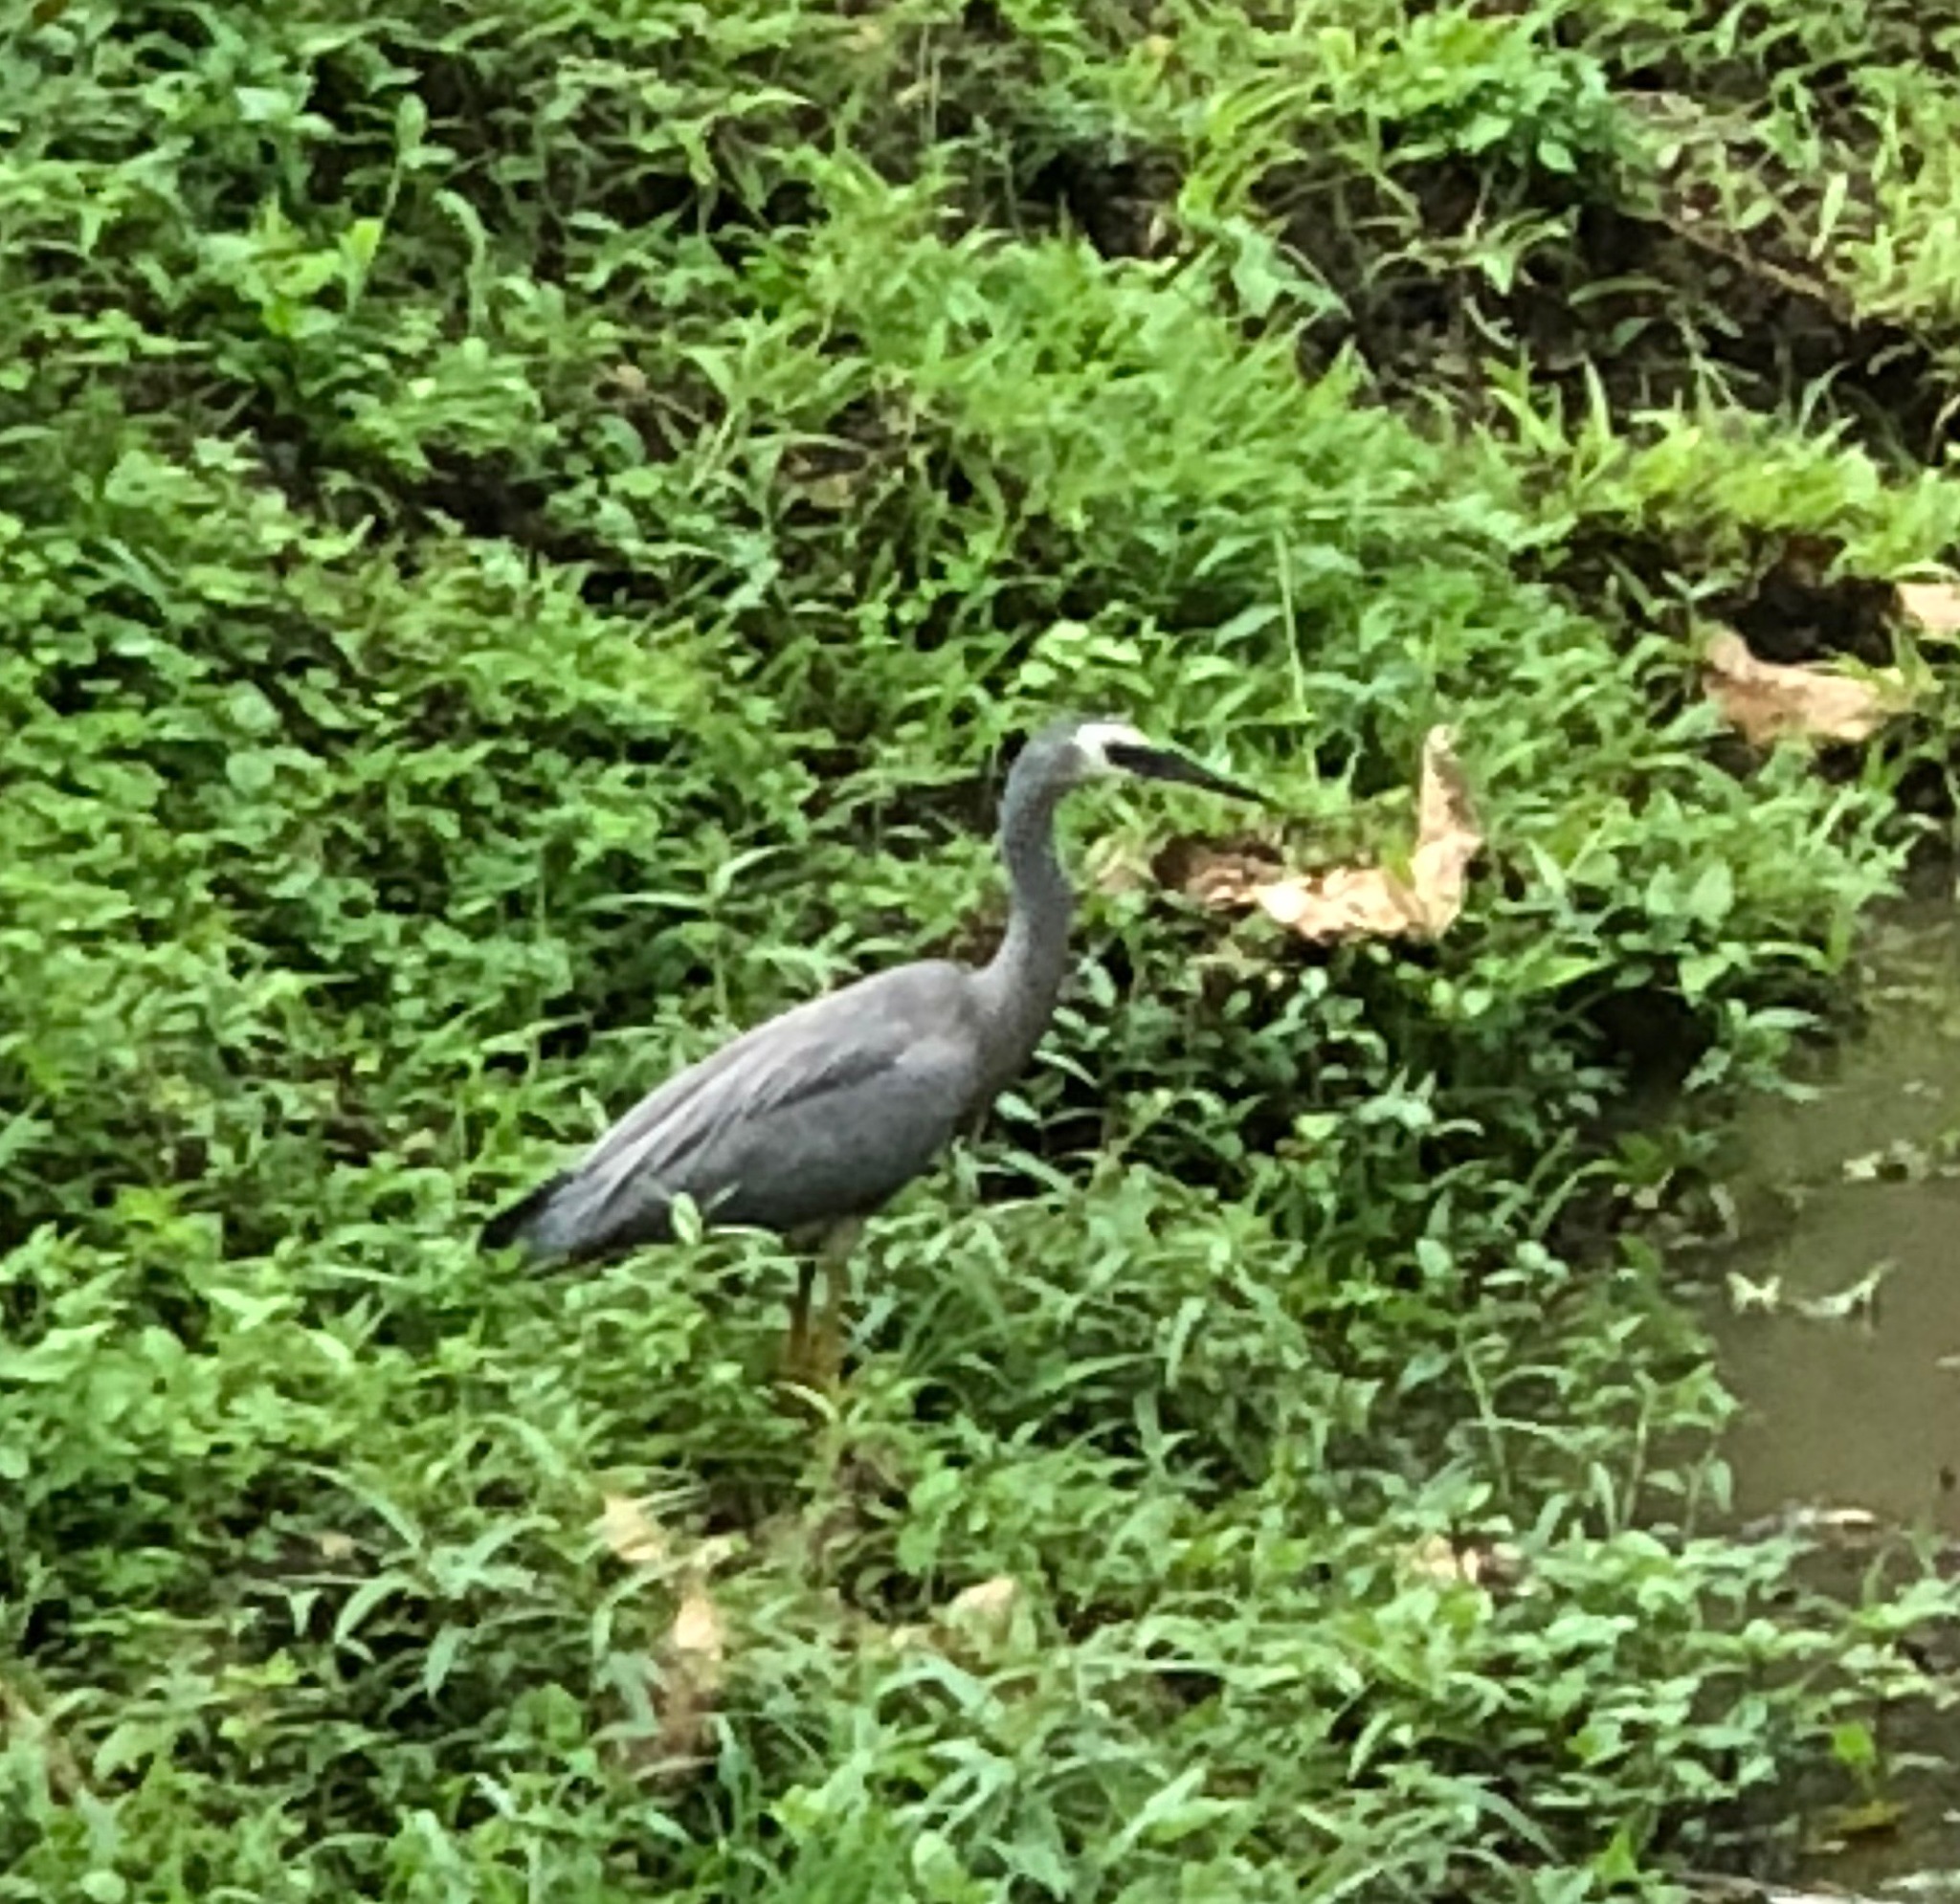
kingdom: Animalia
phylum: Chordata
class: Aves
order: Pelecaniformes
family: Ardeidae
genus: Egretta
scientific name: Egretta novaehollandiae
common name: White-faced heron
